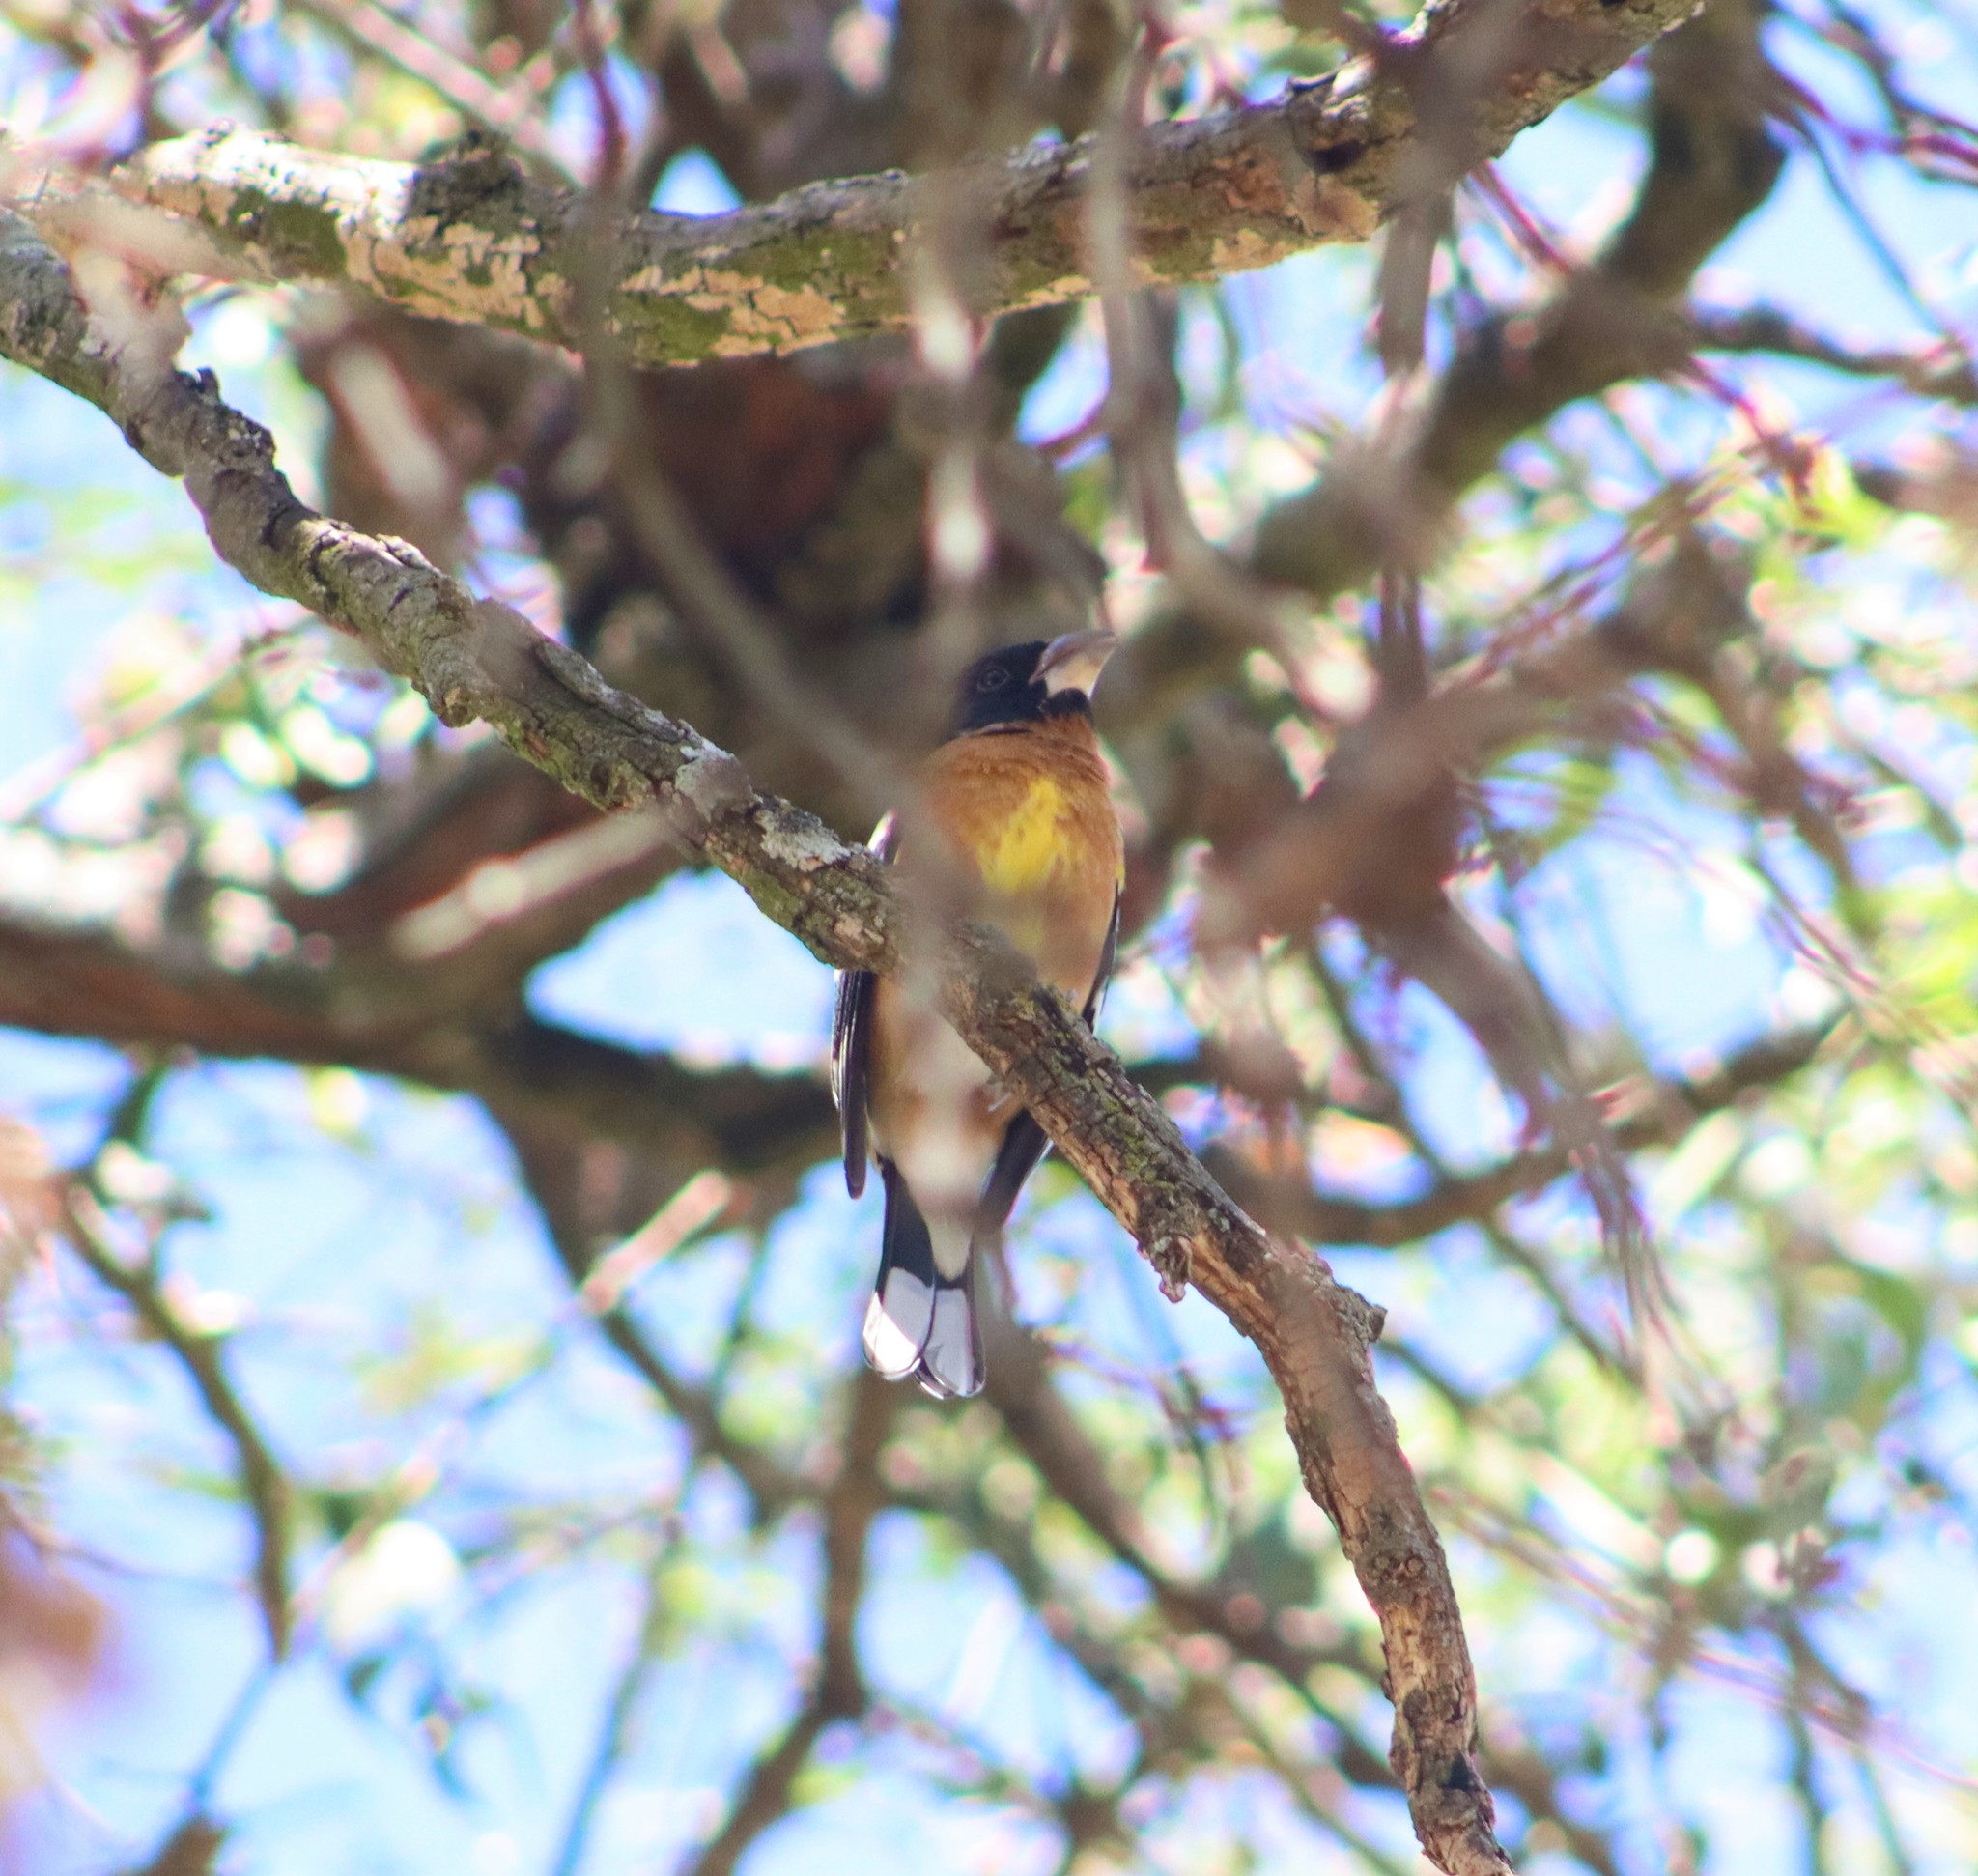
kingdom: Animalia
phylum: Chordata
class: Aves
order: Passeriformes
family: Cardinalidae
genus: Pheucticus
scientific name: Pheucticus melanocephalus
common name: Black-headed grosbeak
